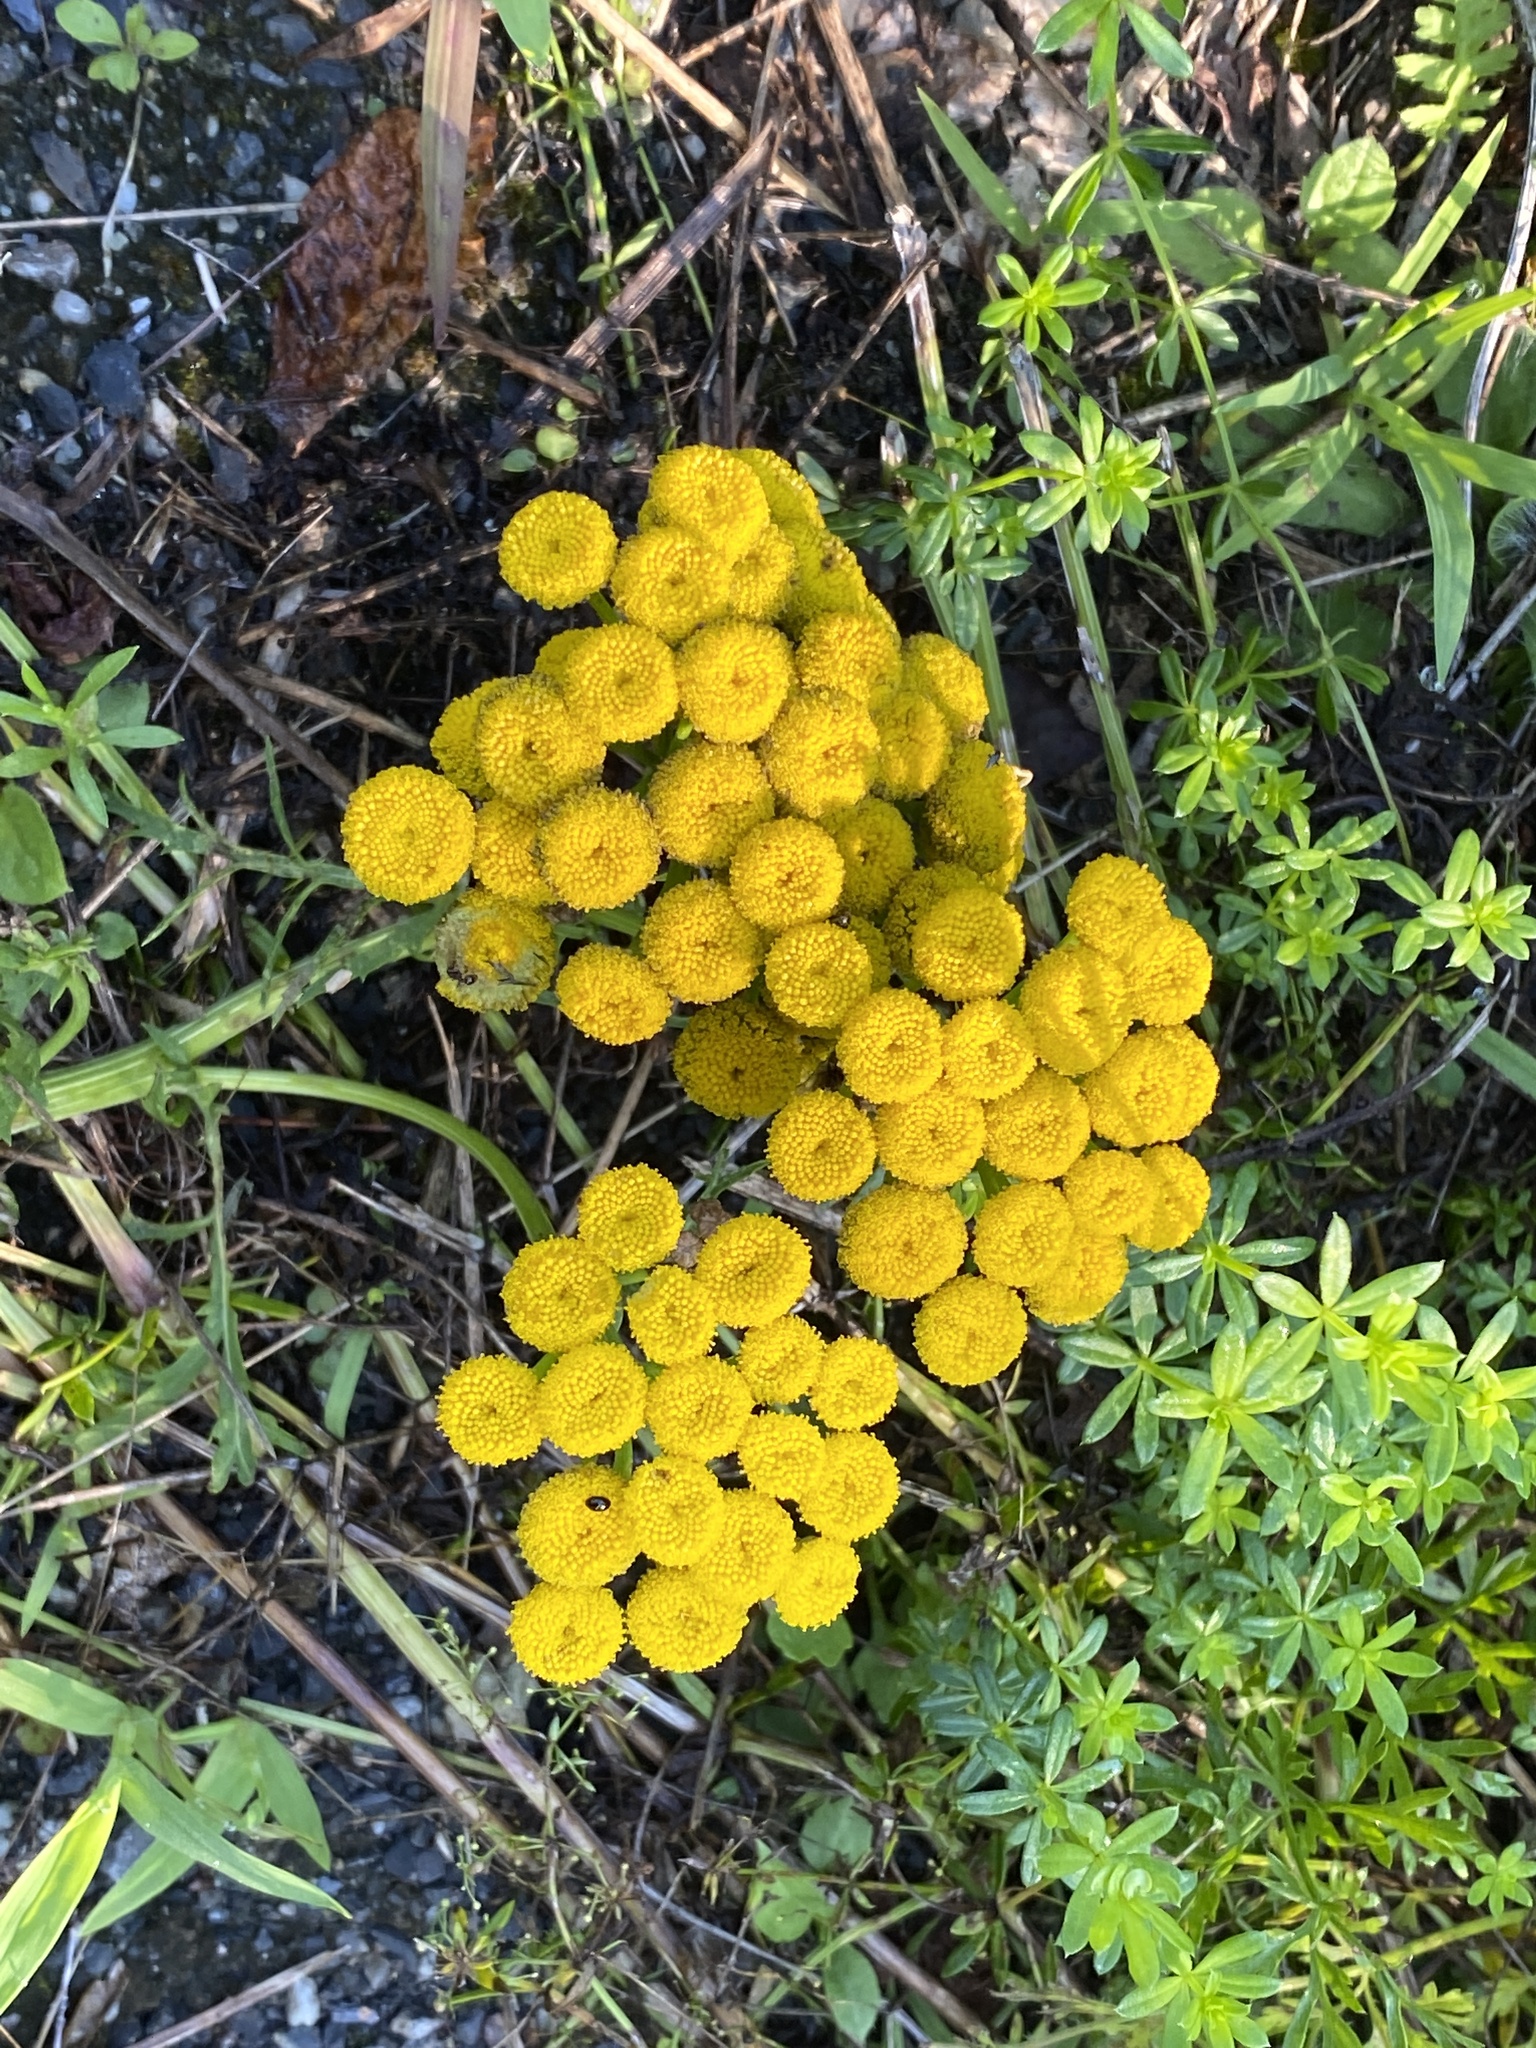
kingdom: Plantae
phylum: Tracheophyta
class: Magnoliopsida
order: Asterales
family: Asteraceae
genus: Tanacetum
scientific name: Tanacetum vulgare
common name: Common tansy
